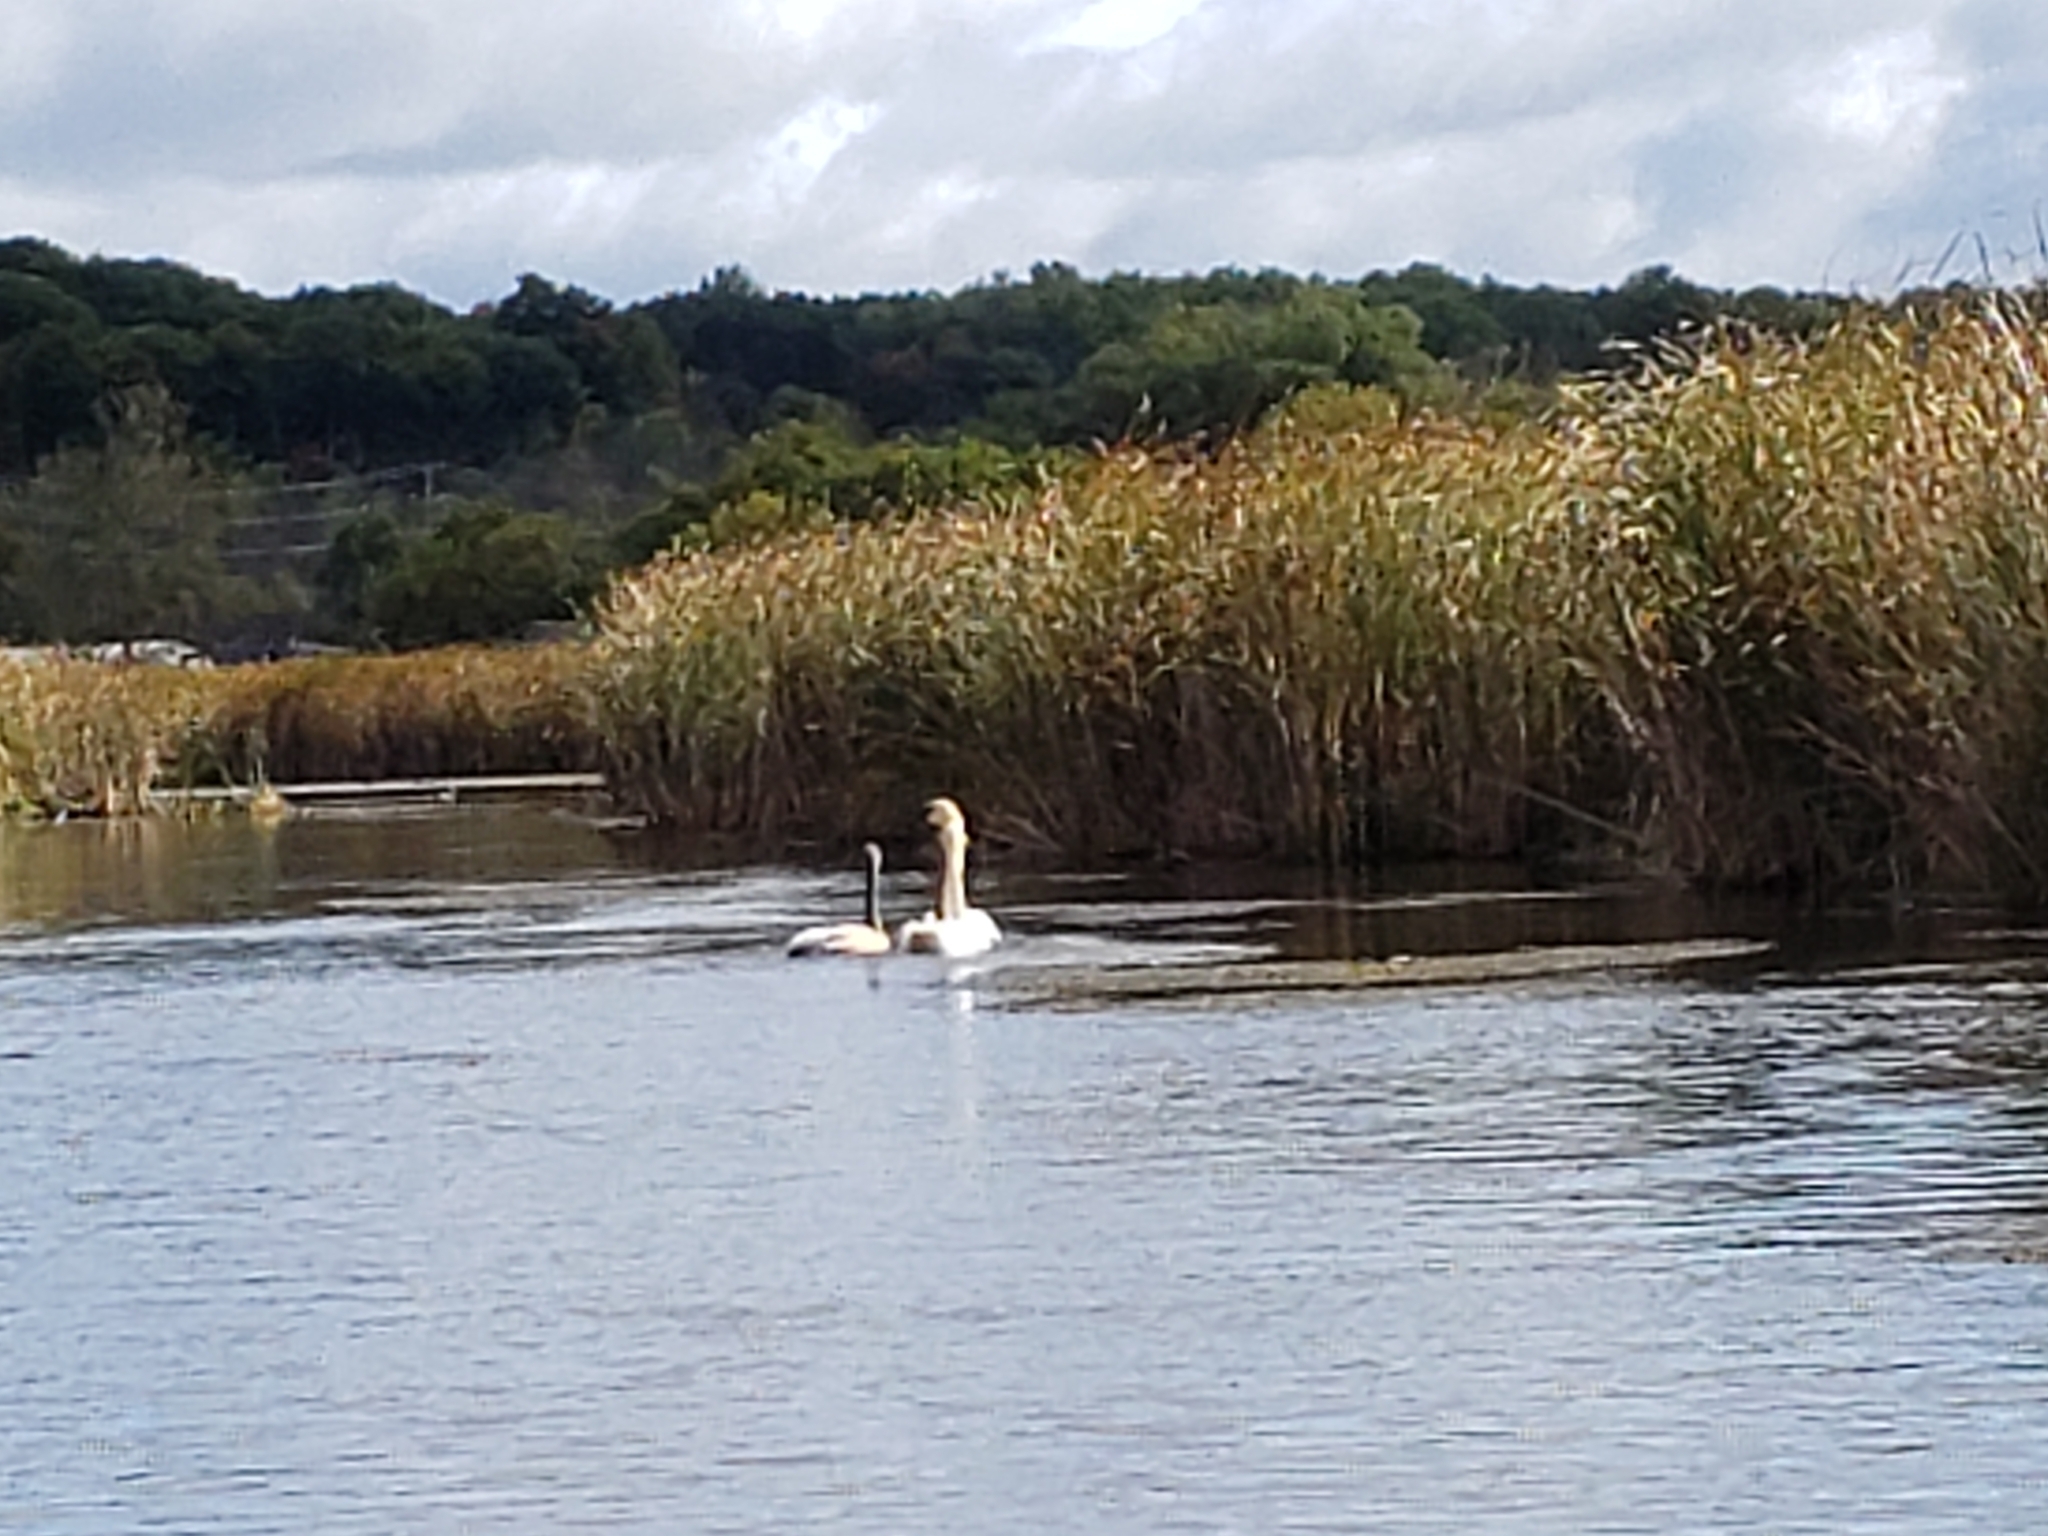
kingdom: Animalia
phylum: Chordata
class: Aves
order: Anseriformes
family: Anatidae
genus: Cygnus
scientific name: Cygnus buccinator
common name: Trumpeter swan
